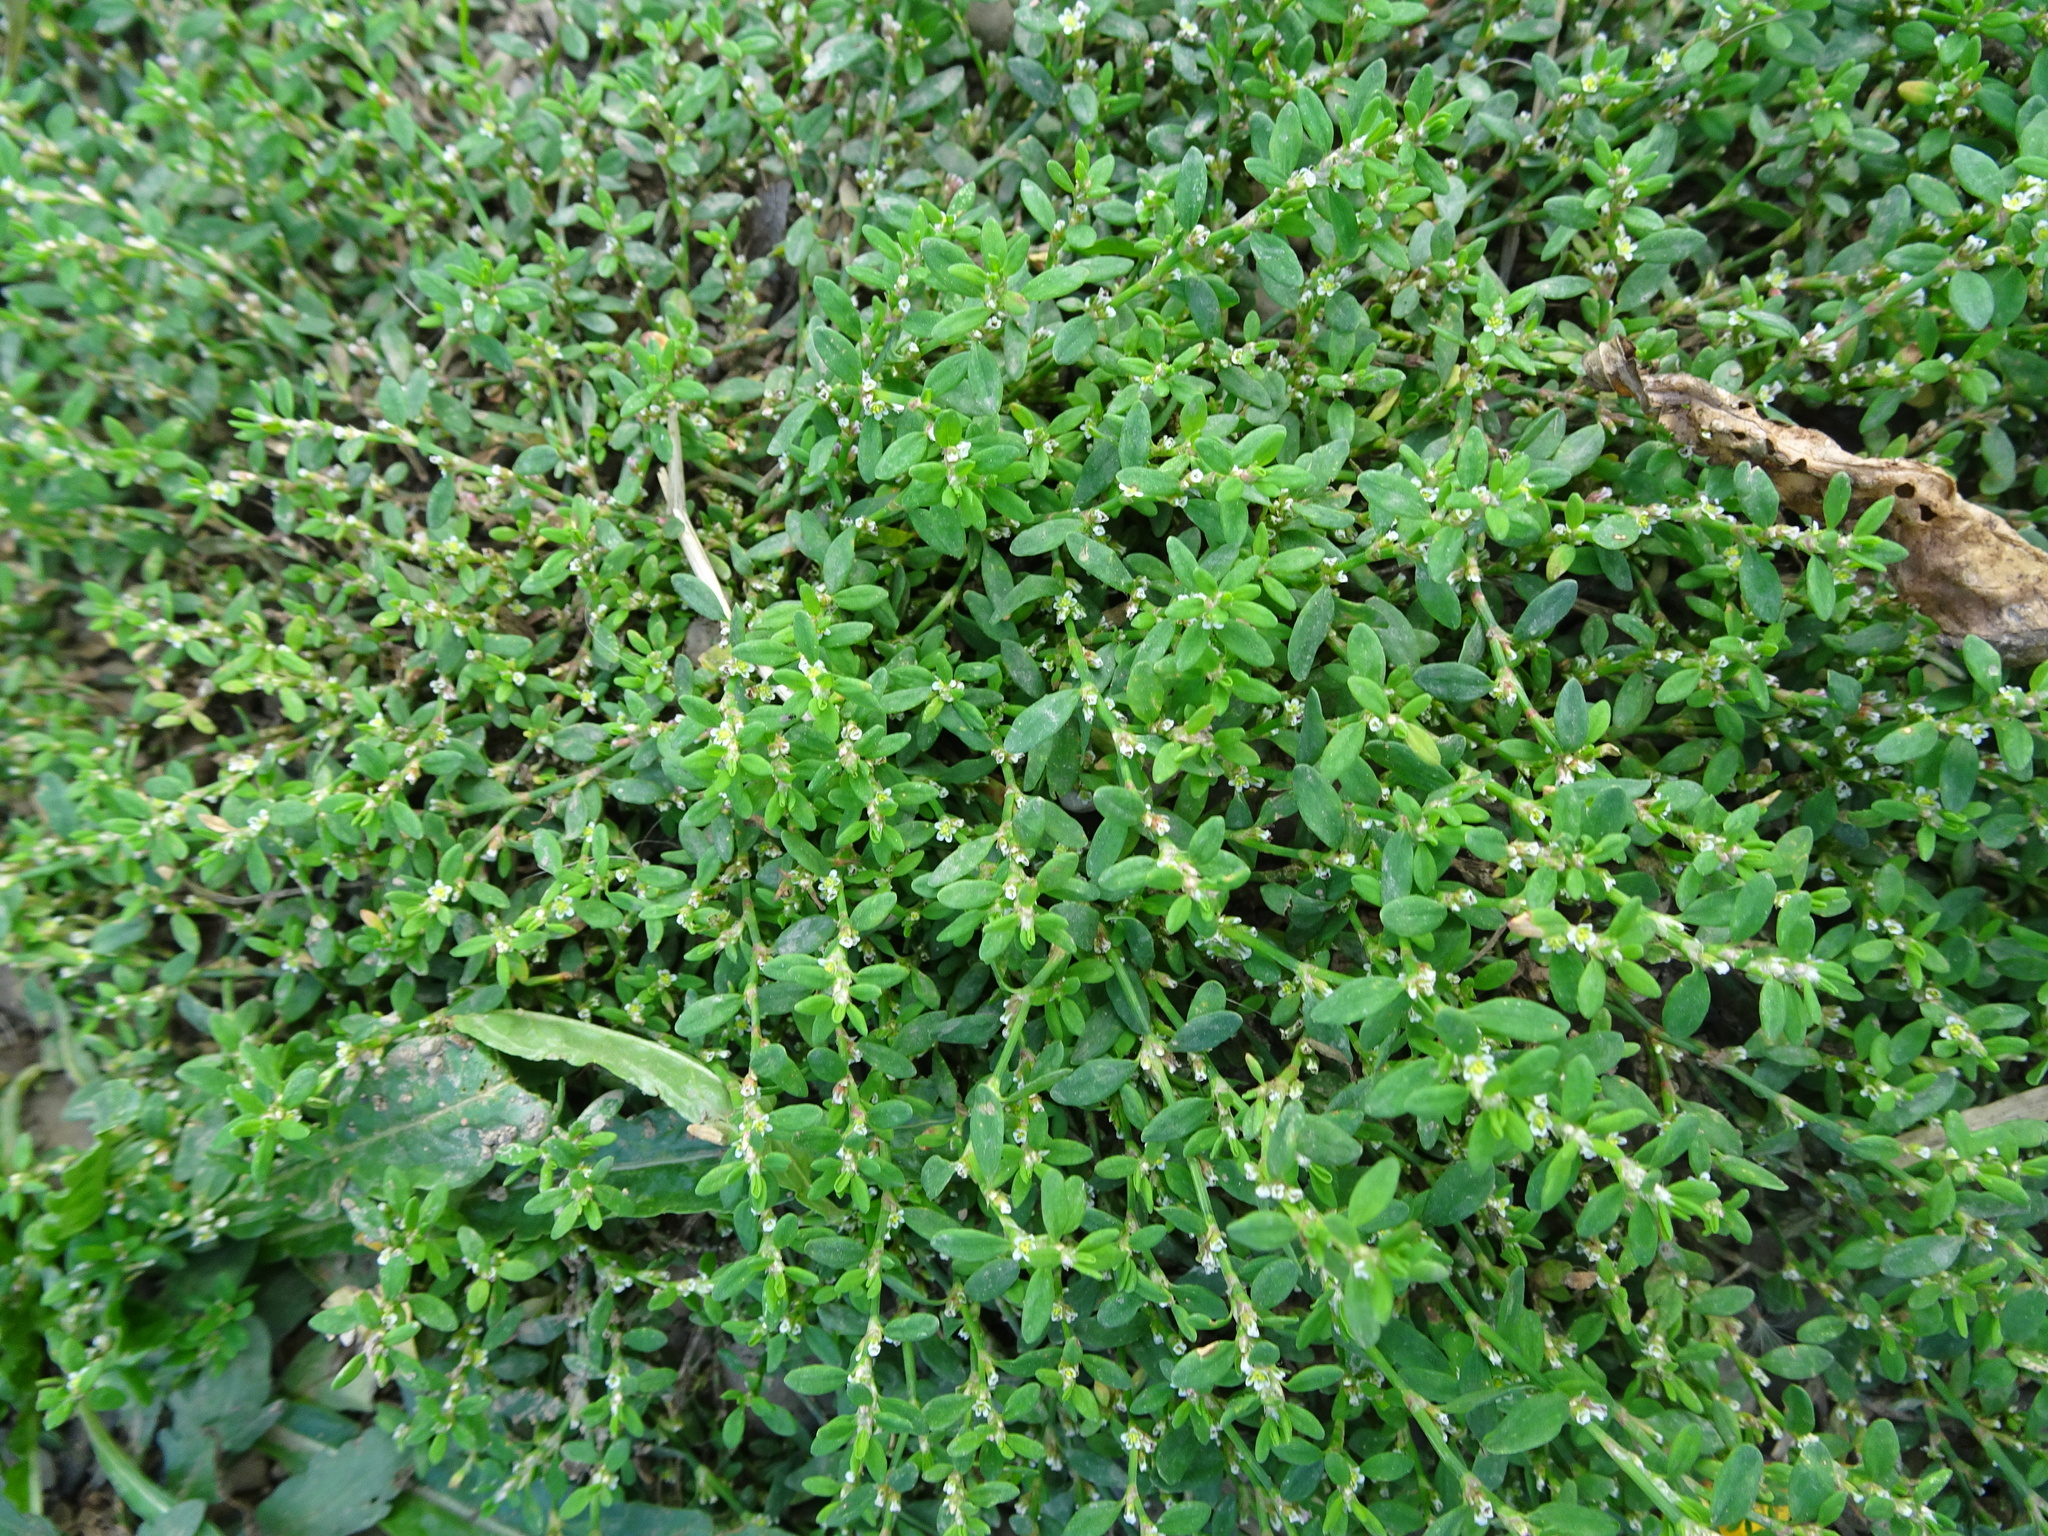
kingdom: Plantae
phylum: Tracheophyta
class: Magnoliopsida
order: Caryophyllales
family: Polygonaceae
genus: Polygonum
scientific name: Polygonum arenastrum
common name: Equal-leaved knotgrass
